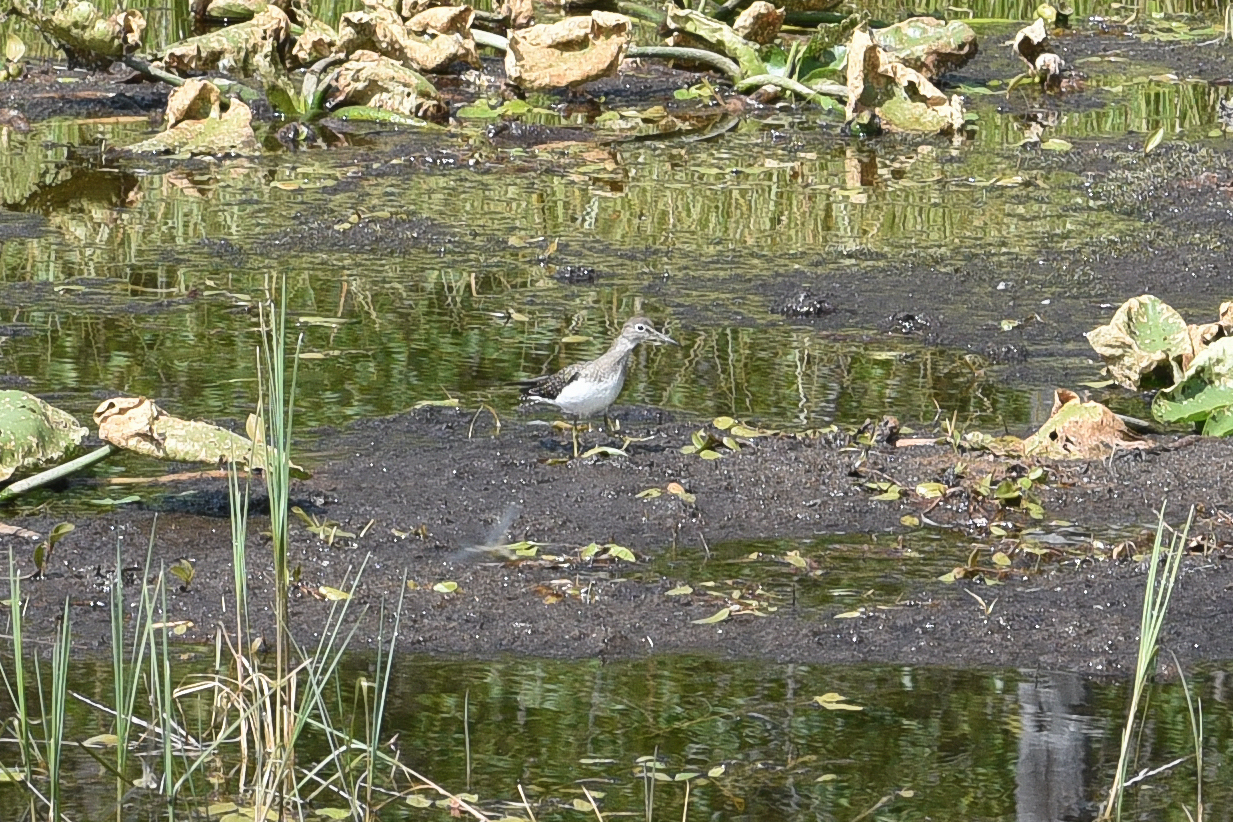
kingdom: Animalia
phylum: Chordata
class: Aves
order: Charadriiformes
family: Scolopacidae
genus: Tringa
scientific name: Tringa solitaria
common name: Solitary sandpiper
